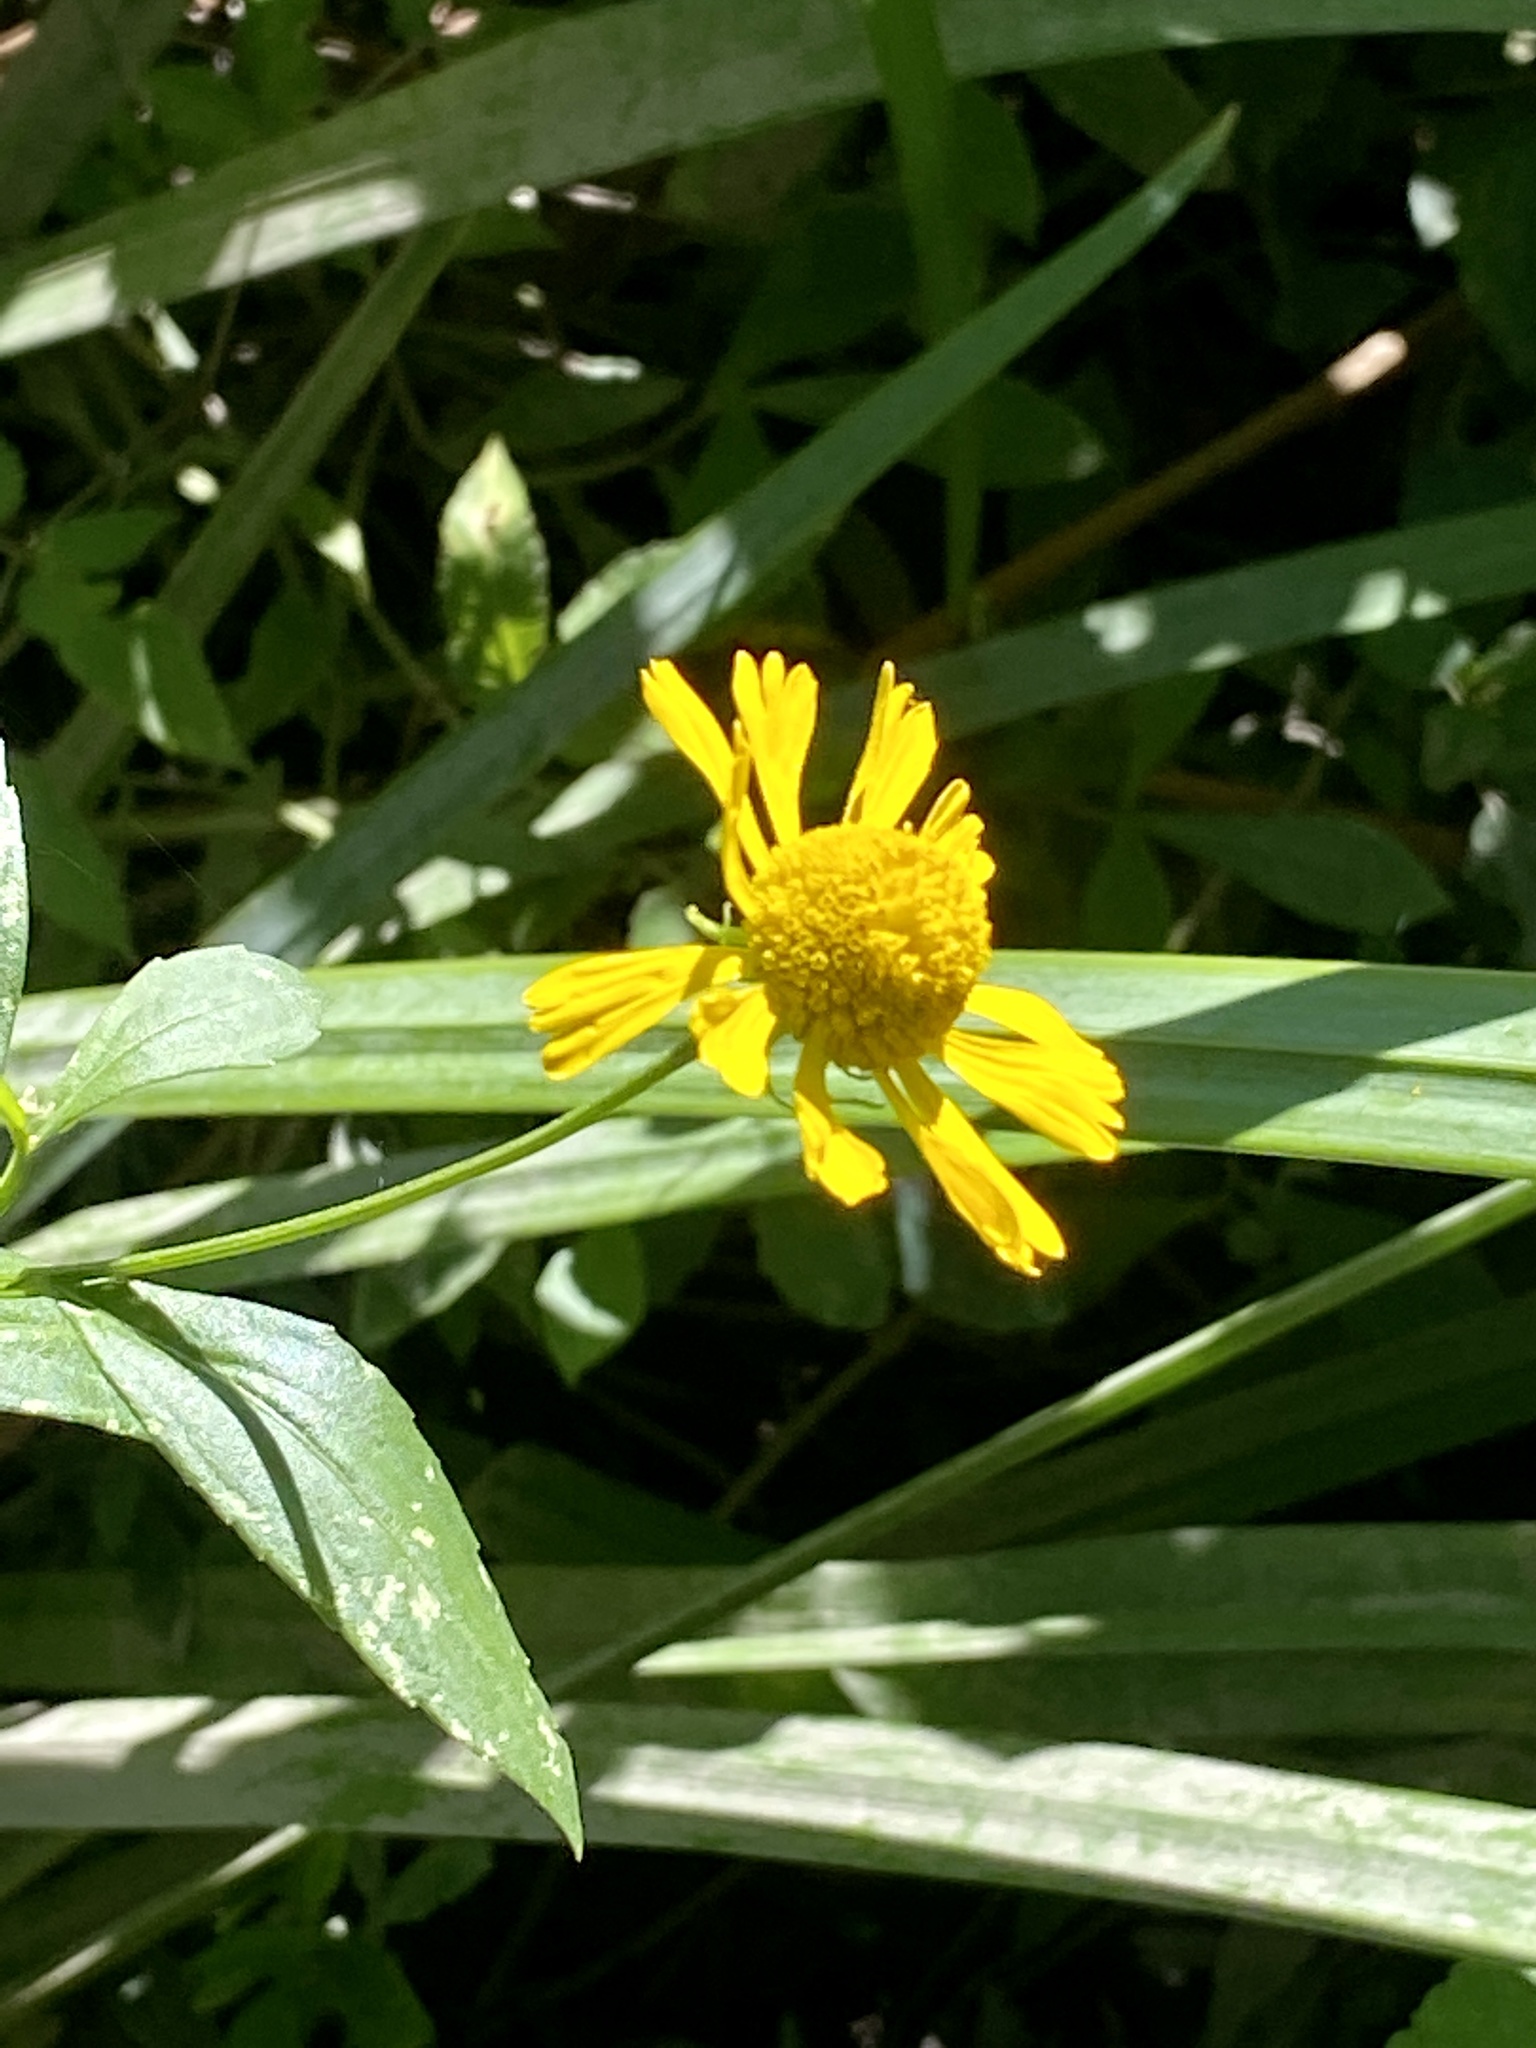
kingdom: Plantae
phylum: Tracheophyta
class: Magnoliopsida
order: Asterales
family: Asteraceae
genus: Helenium
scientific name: Helenium autumnale
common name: Sneezeweed
